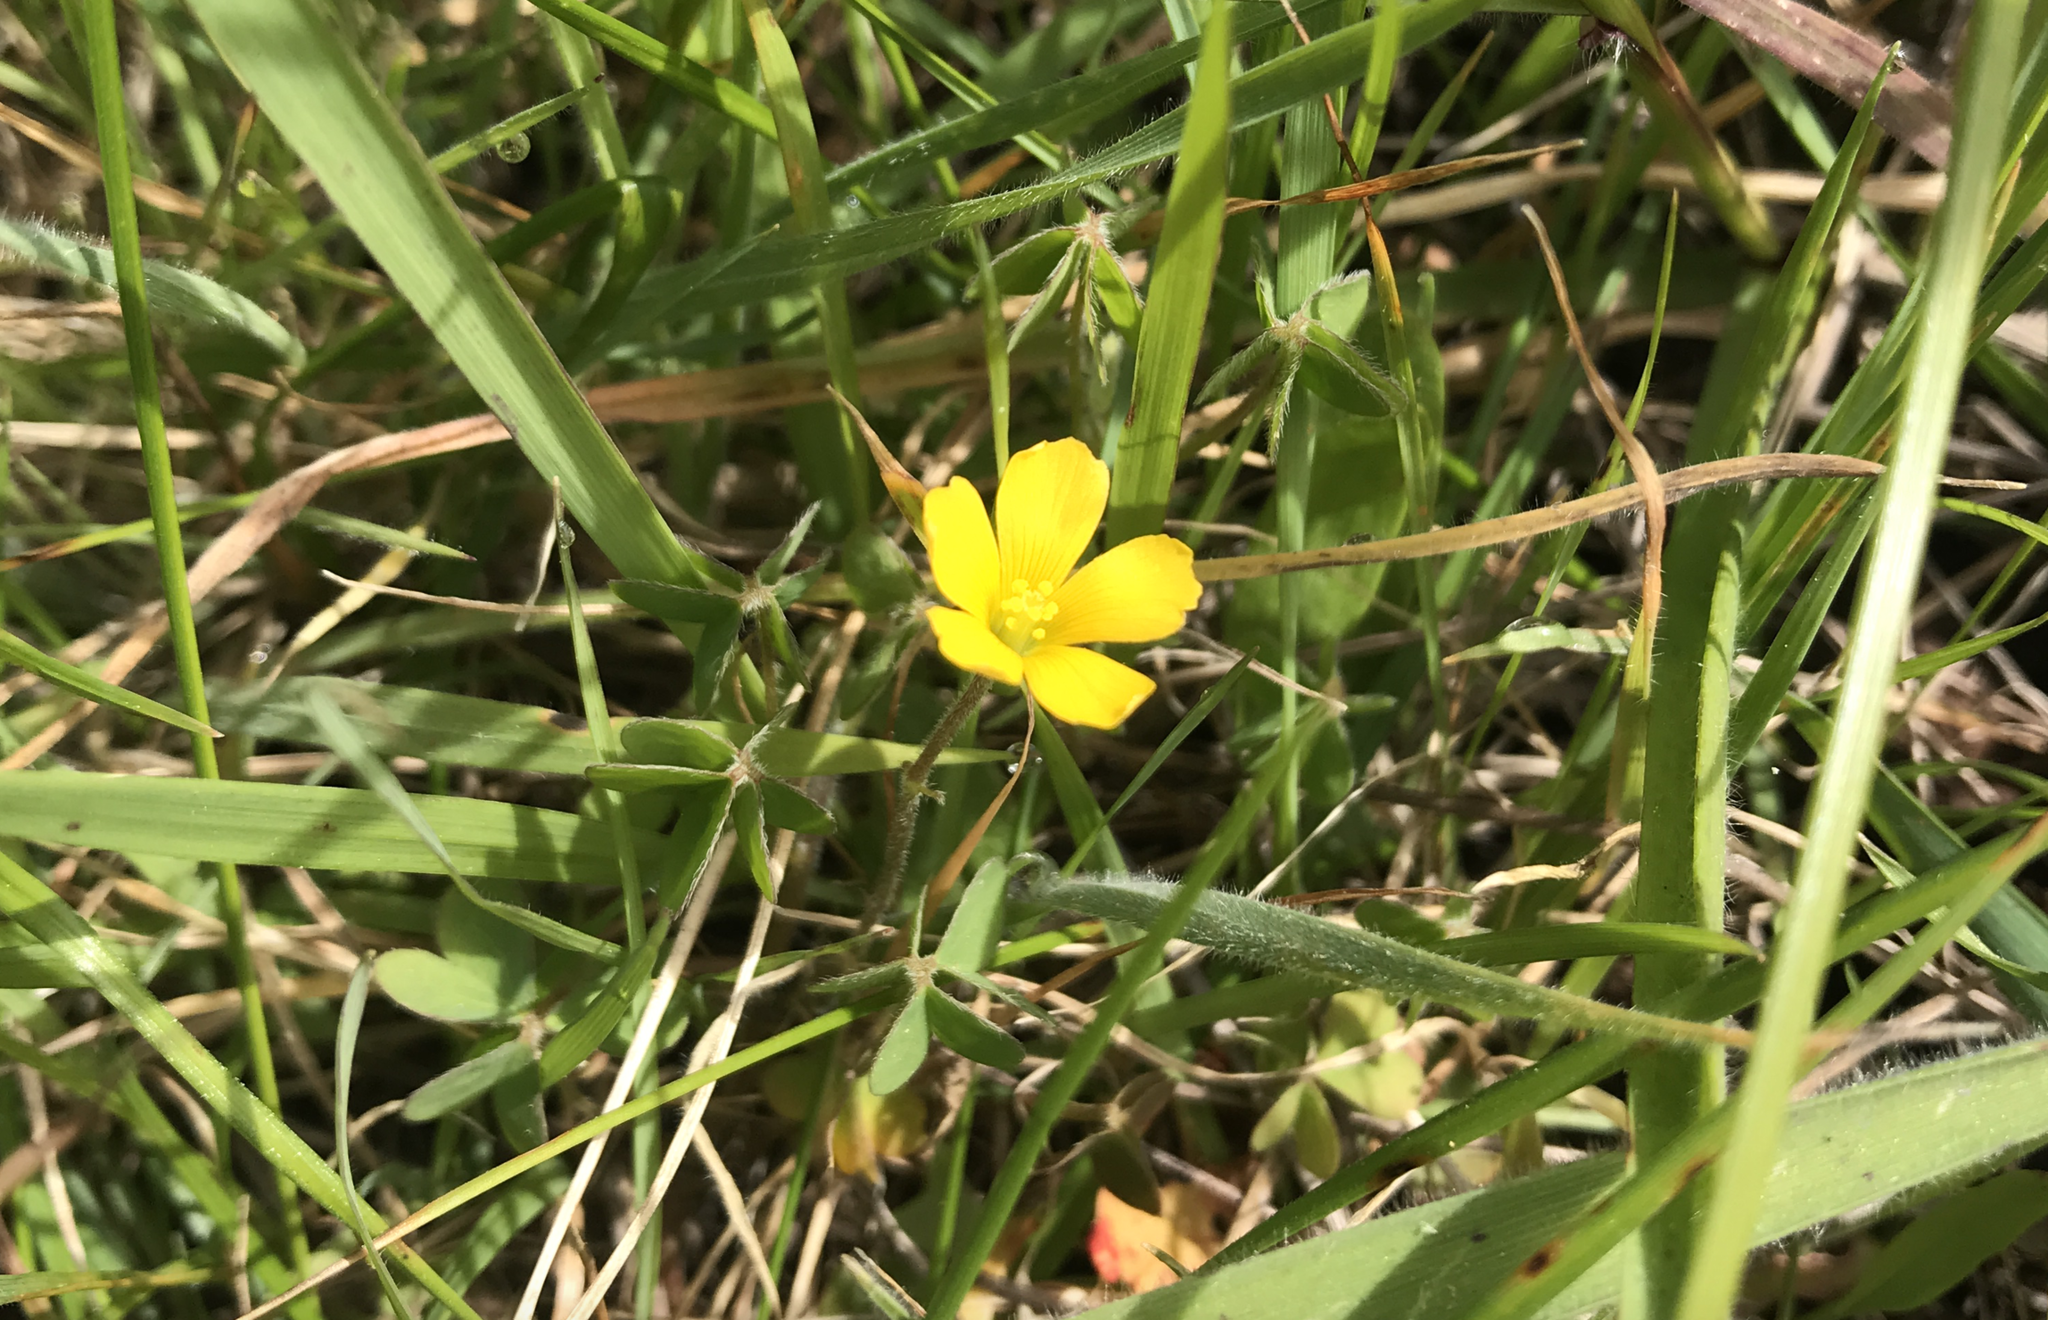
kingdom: Plantae
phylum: Tracheophyta
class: Magnoliopsida
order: Oxalidales
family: Oxalidaceae
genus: Oxalis
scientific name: Oxalis pilosa
